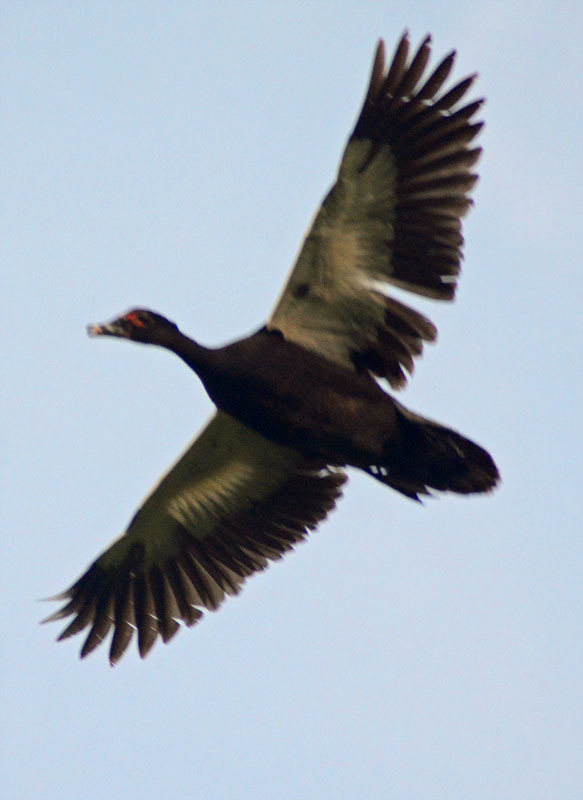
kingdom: Animalia
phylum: Chordata
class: Aves
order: Anseriformes
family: Anatidae
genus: Cairina
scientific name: Cairina moschata
